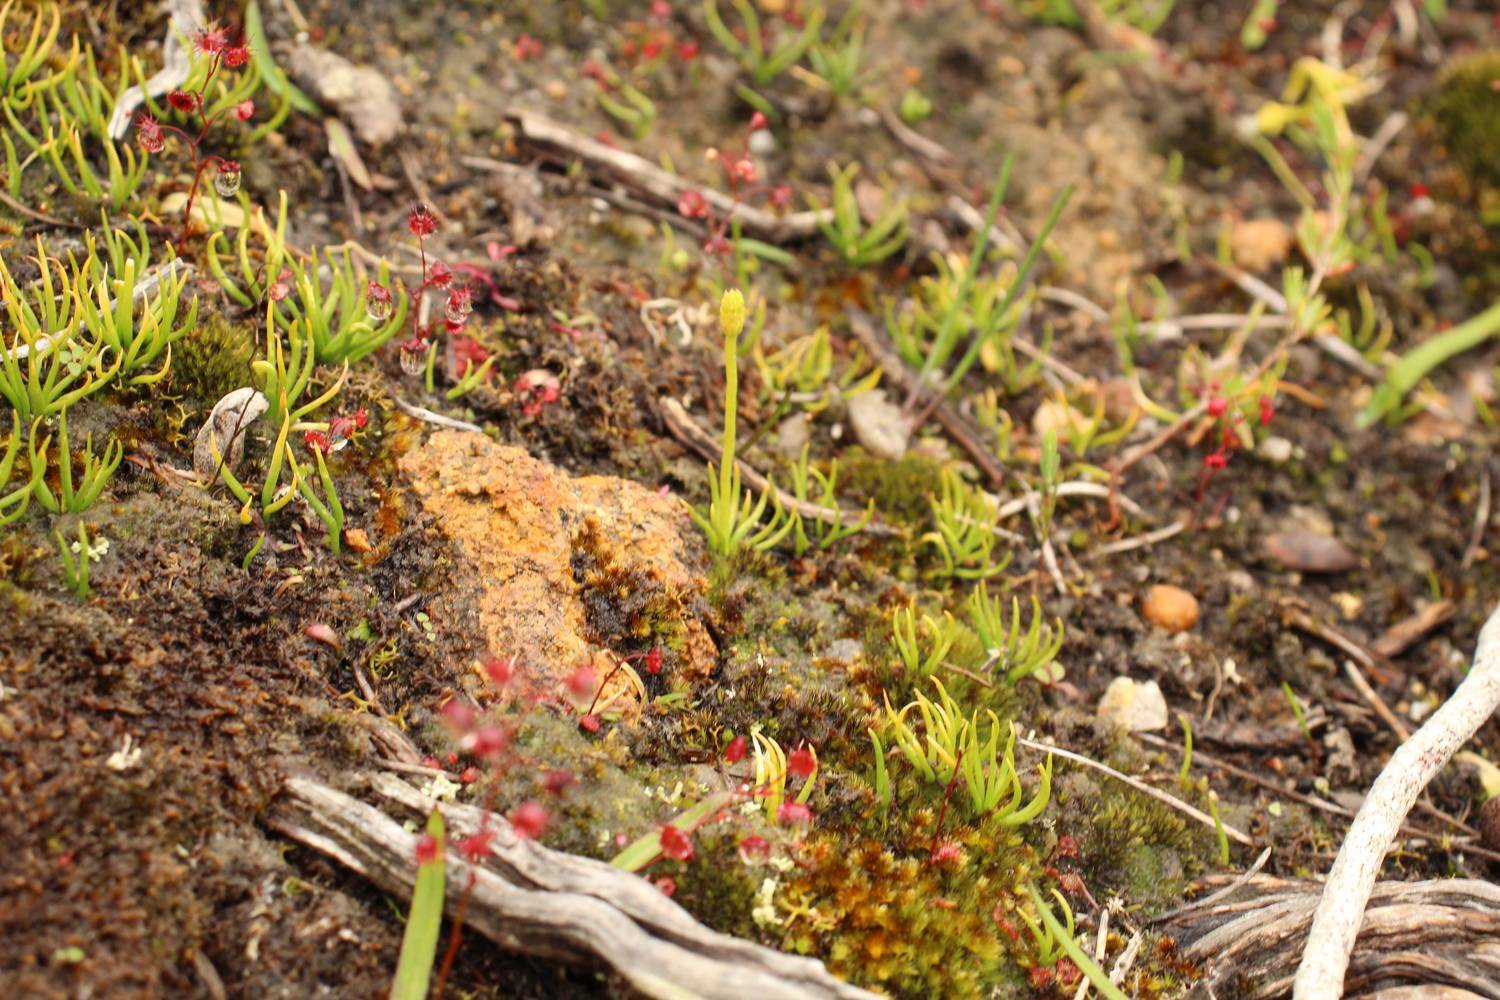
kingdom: Plantae
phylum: Tracheophyta
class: Lycopodiopsida
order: Lycopodiales
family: Lycopodiaceae
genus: Phylloglossum
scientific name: Phylloglossum drummondii
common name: Pigmy-club-moss
